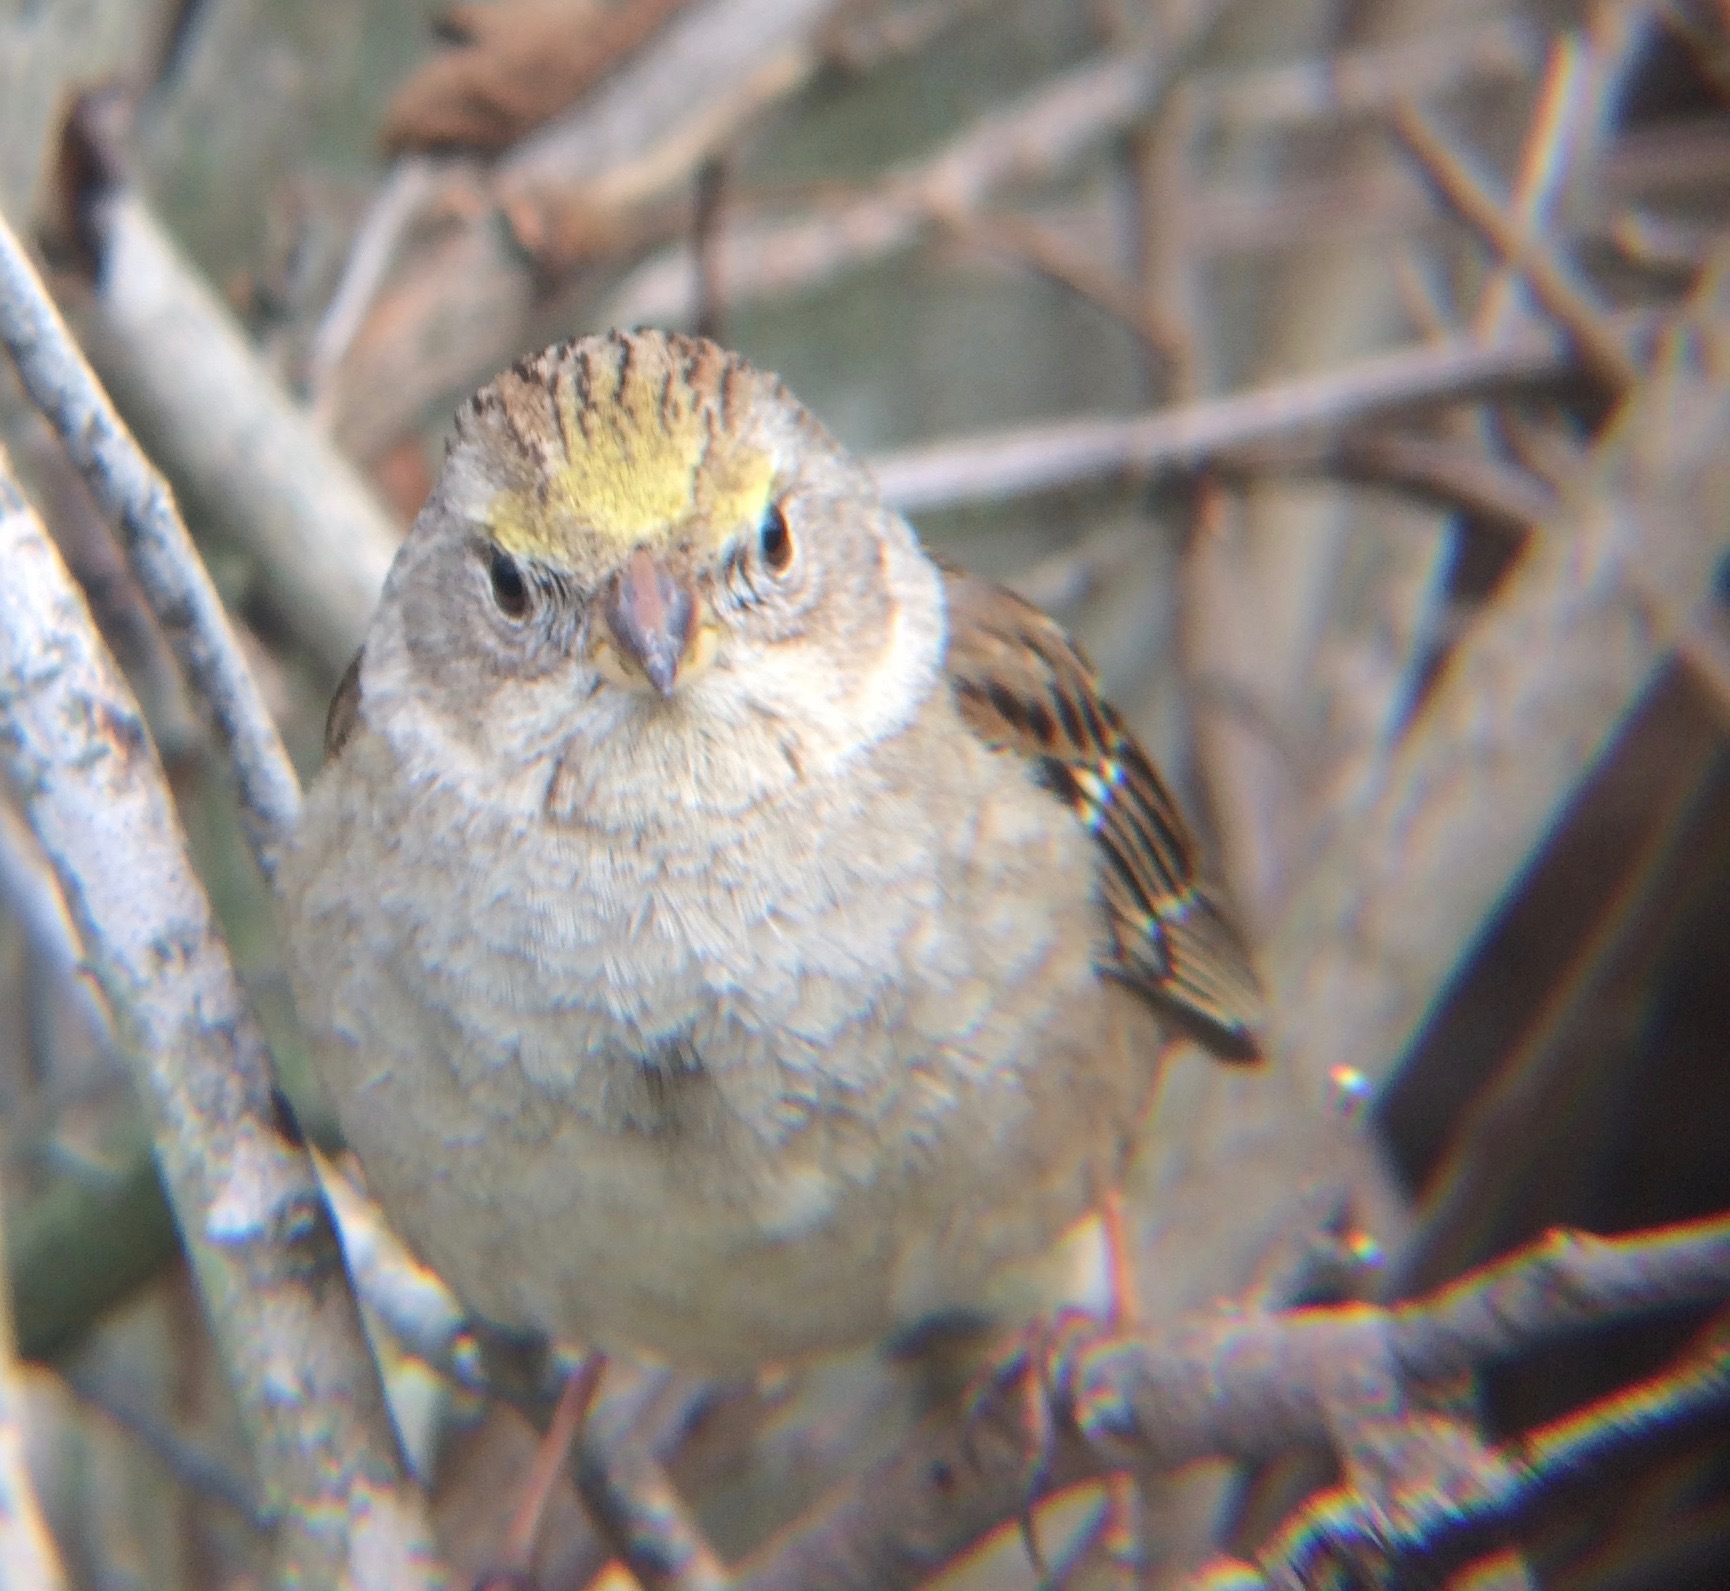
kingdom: Animalia
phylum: Chordata
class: Aves
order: Passeriformes
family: Passerellidae
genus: Zonotrichia
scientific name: Zonotrichia atricapilla
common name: Golden-crowned sparrow
